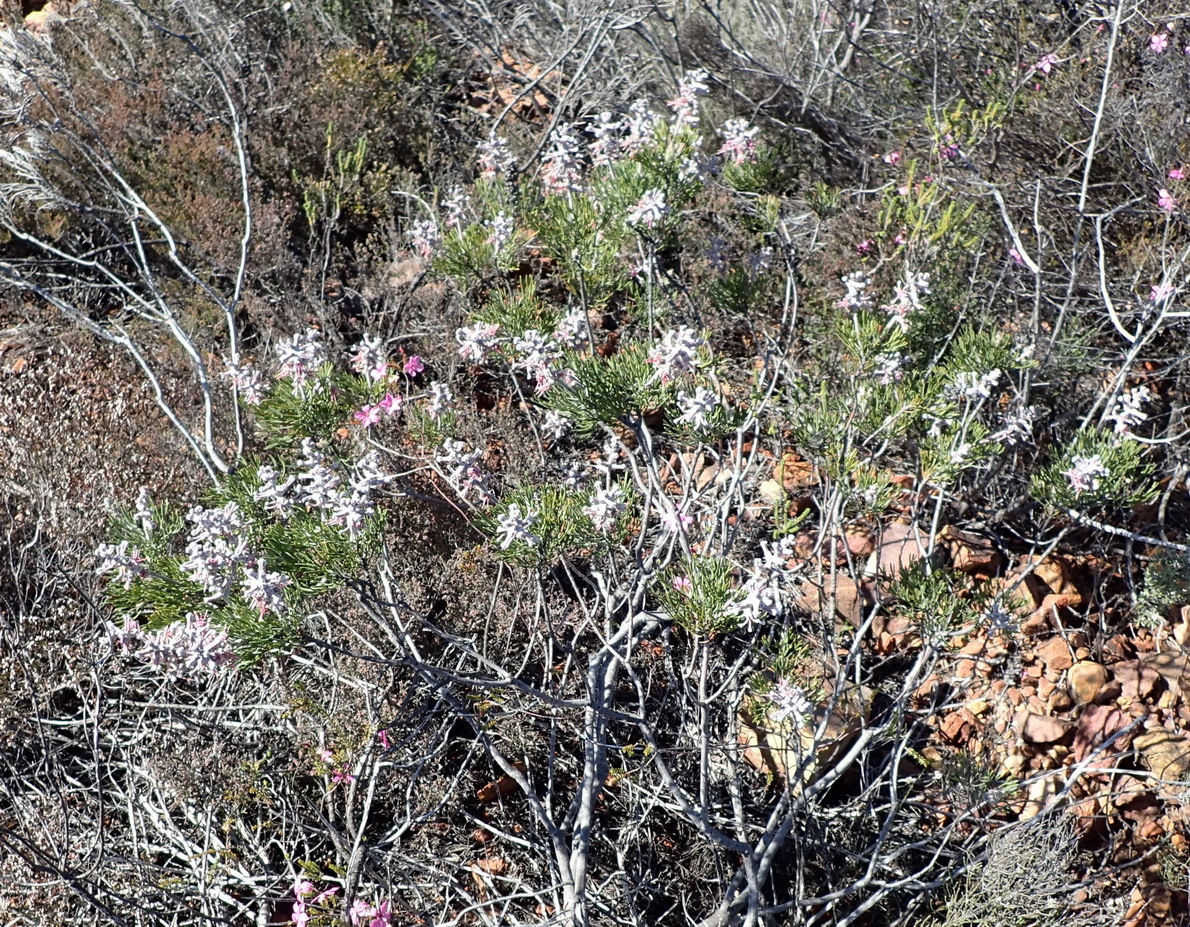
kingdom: Plantae
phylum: Tracheophyta
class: Magnoliopsida
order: Proteales
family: Proteaceae
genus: Paranomus
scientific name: Paranomus dispersus
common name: Long-head sceptre
